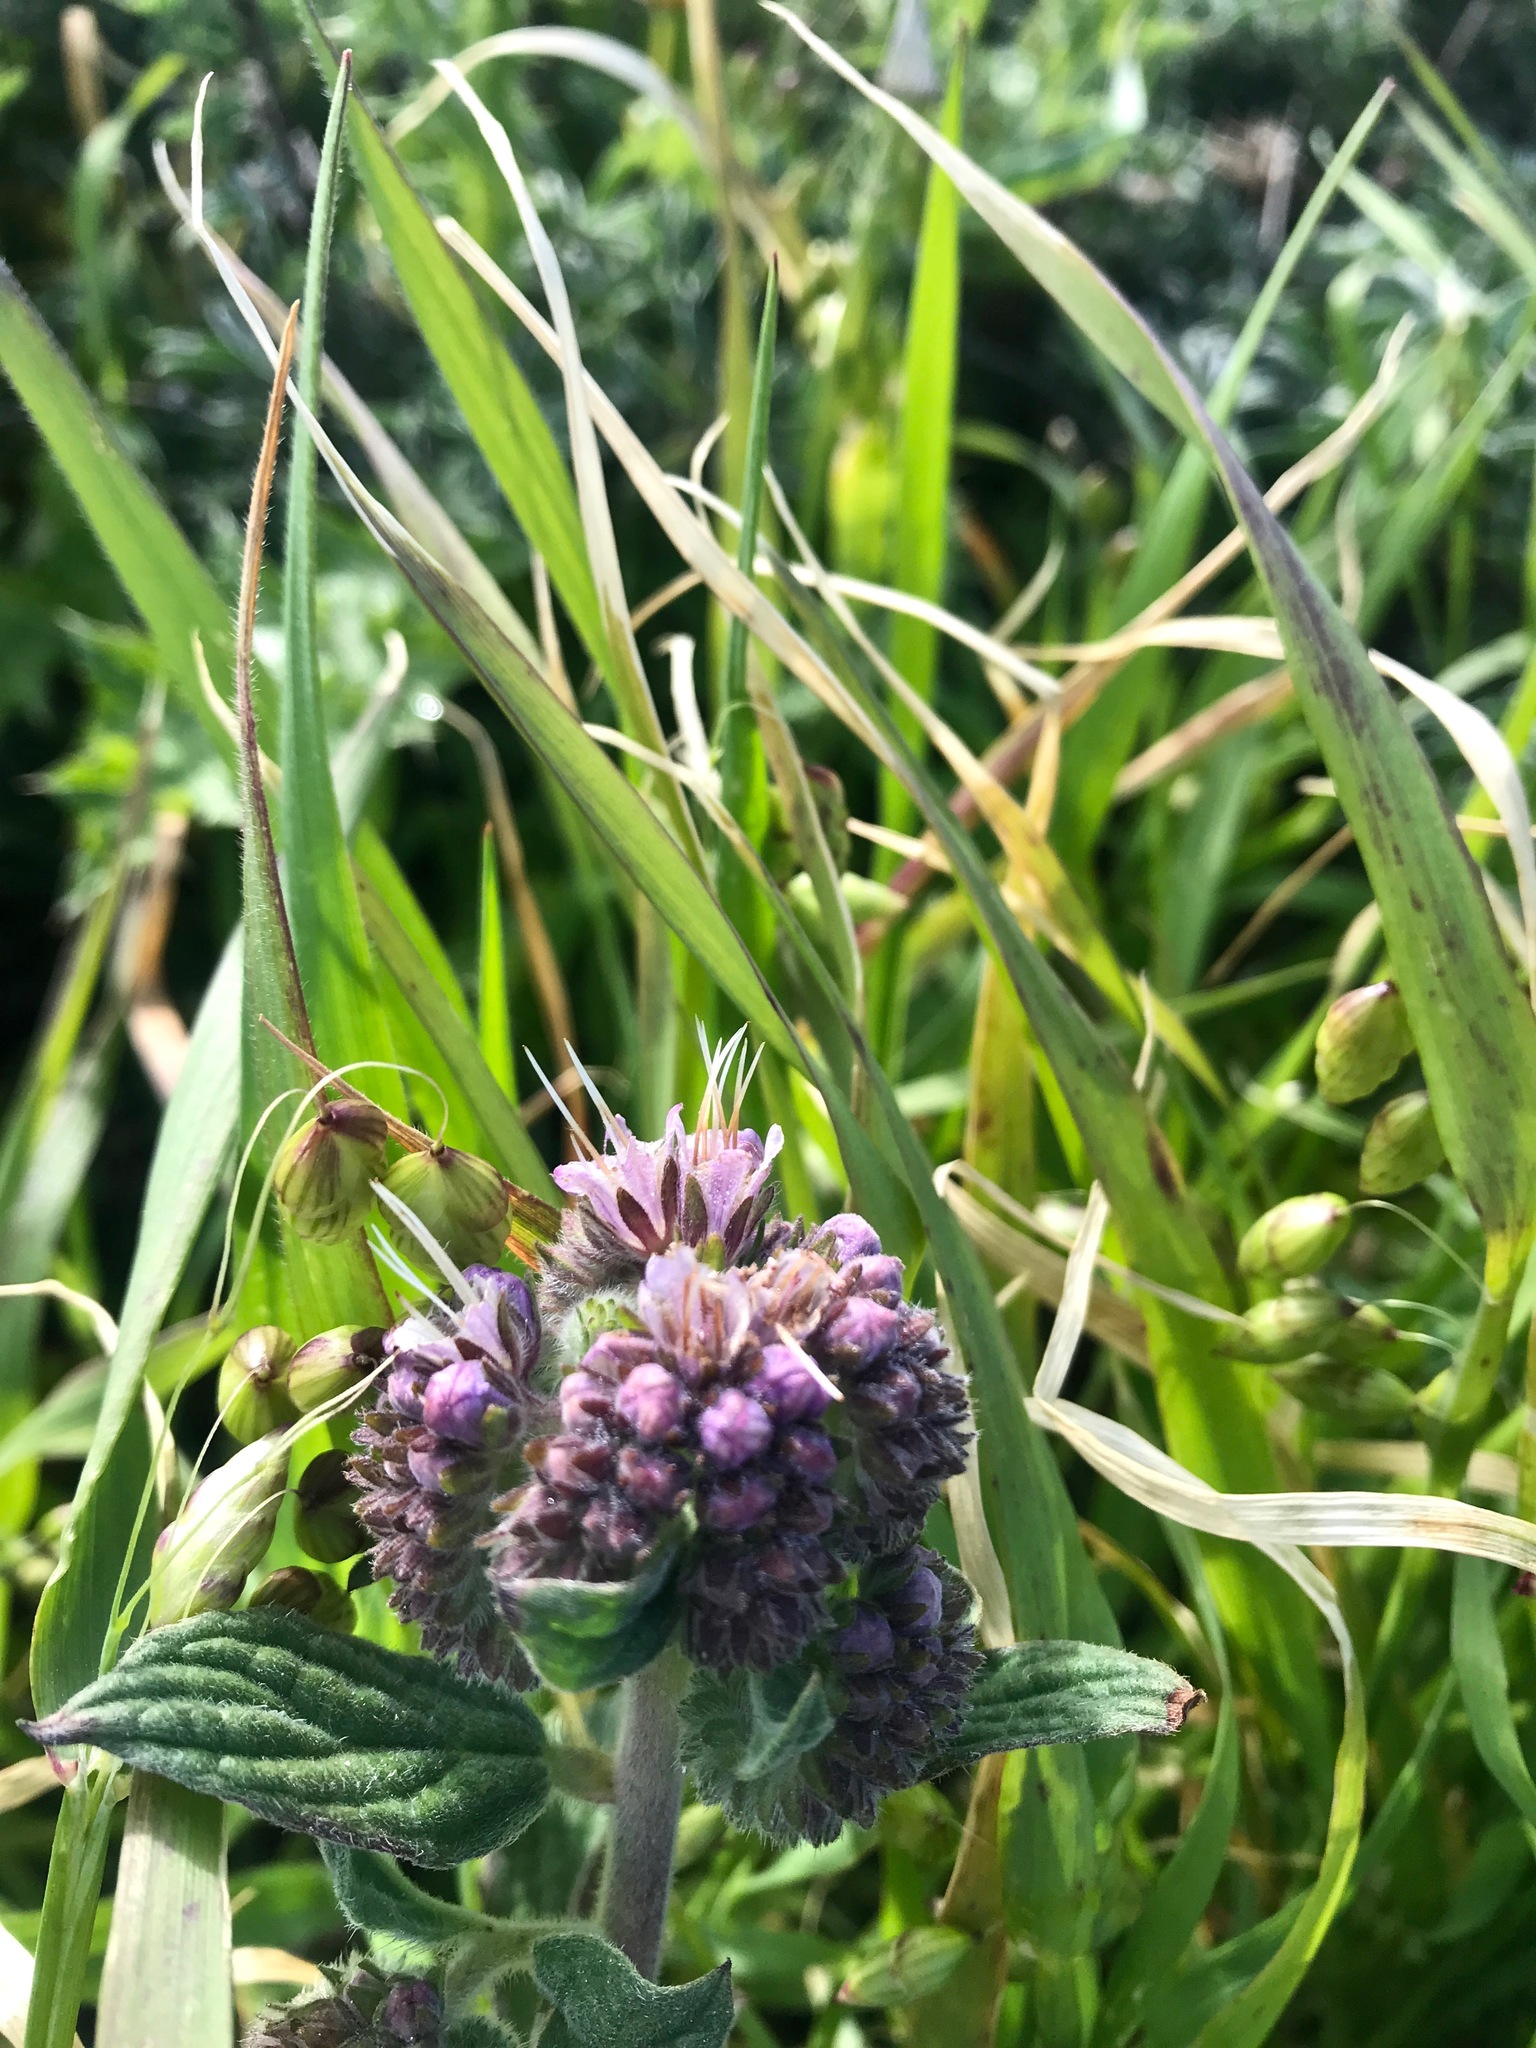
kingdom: Plantae
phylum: Tracheophyta
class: Magnoliopsida
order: Boraginales
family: Hydrophyllaceae
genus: Phacelia
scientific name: Phacelia californica
